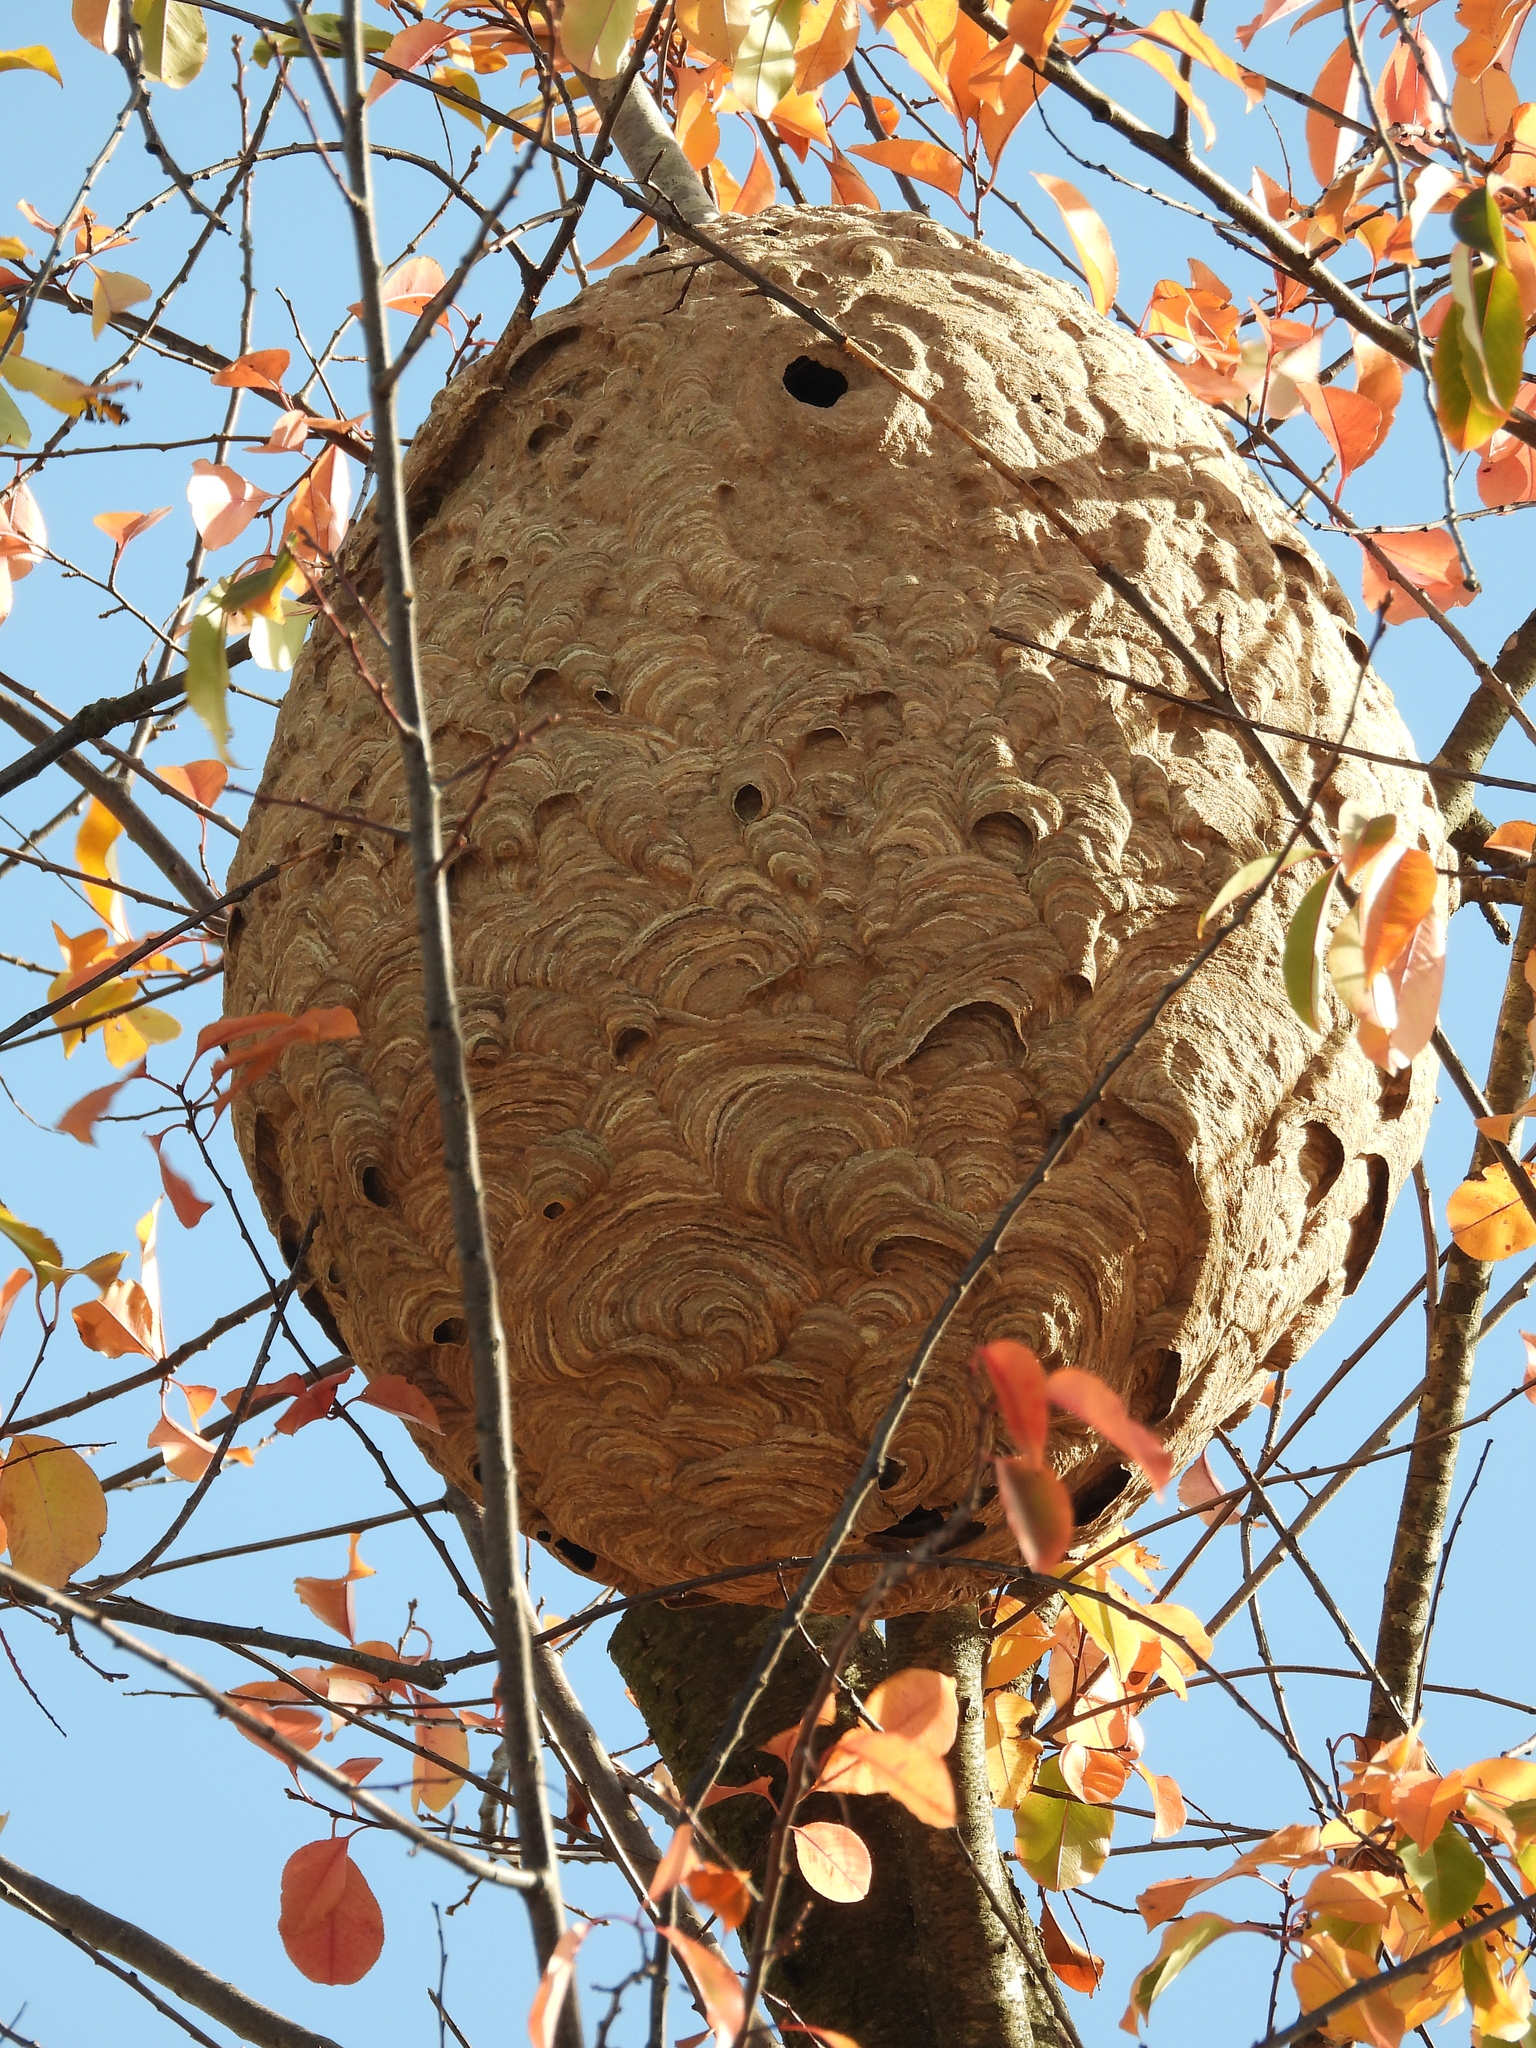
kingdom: Animalia
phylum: Arthropoda
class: Insecta
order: Hymenoptera
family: Vespidae
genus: Vespa
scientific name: Vespa velutina
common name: Asian hornet
